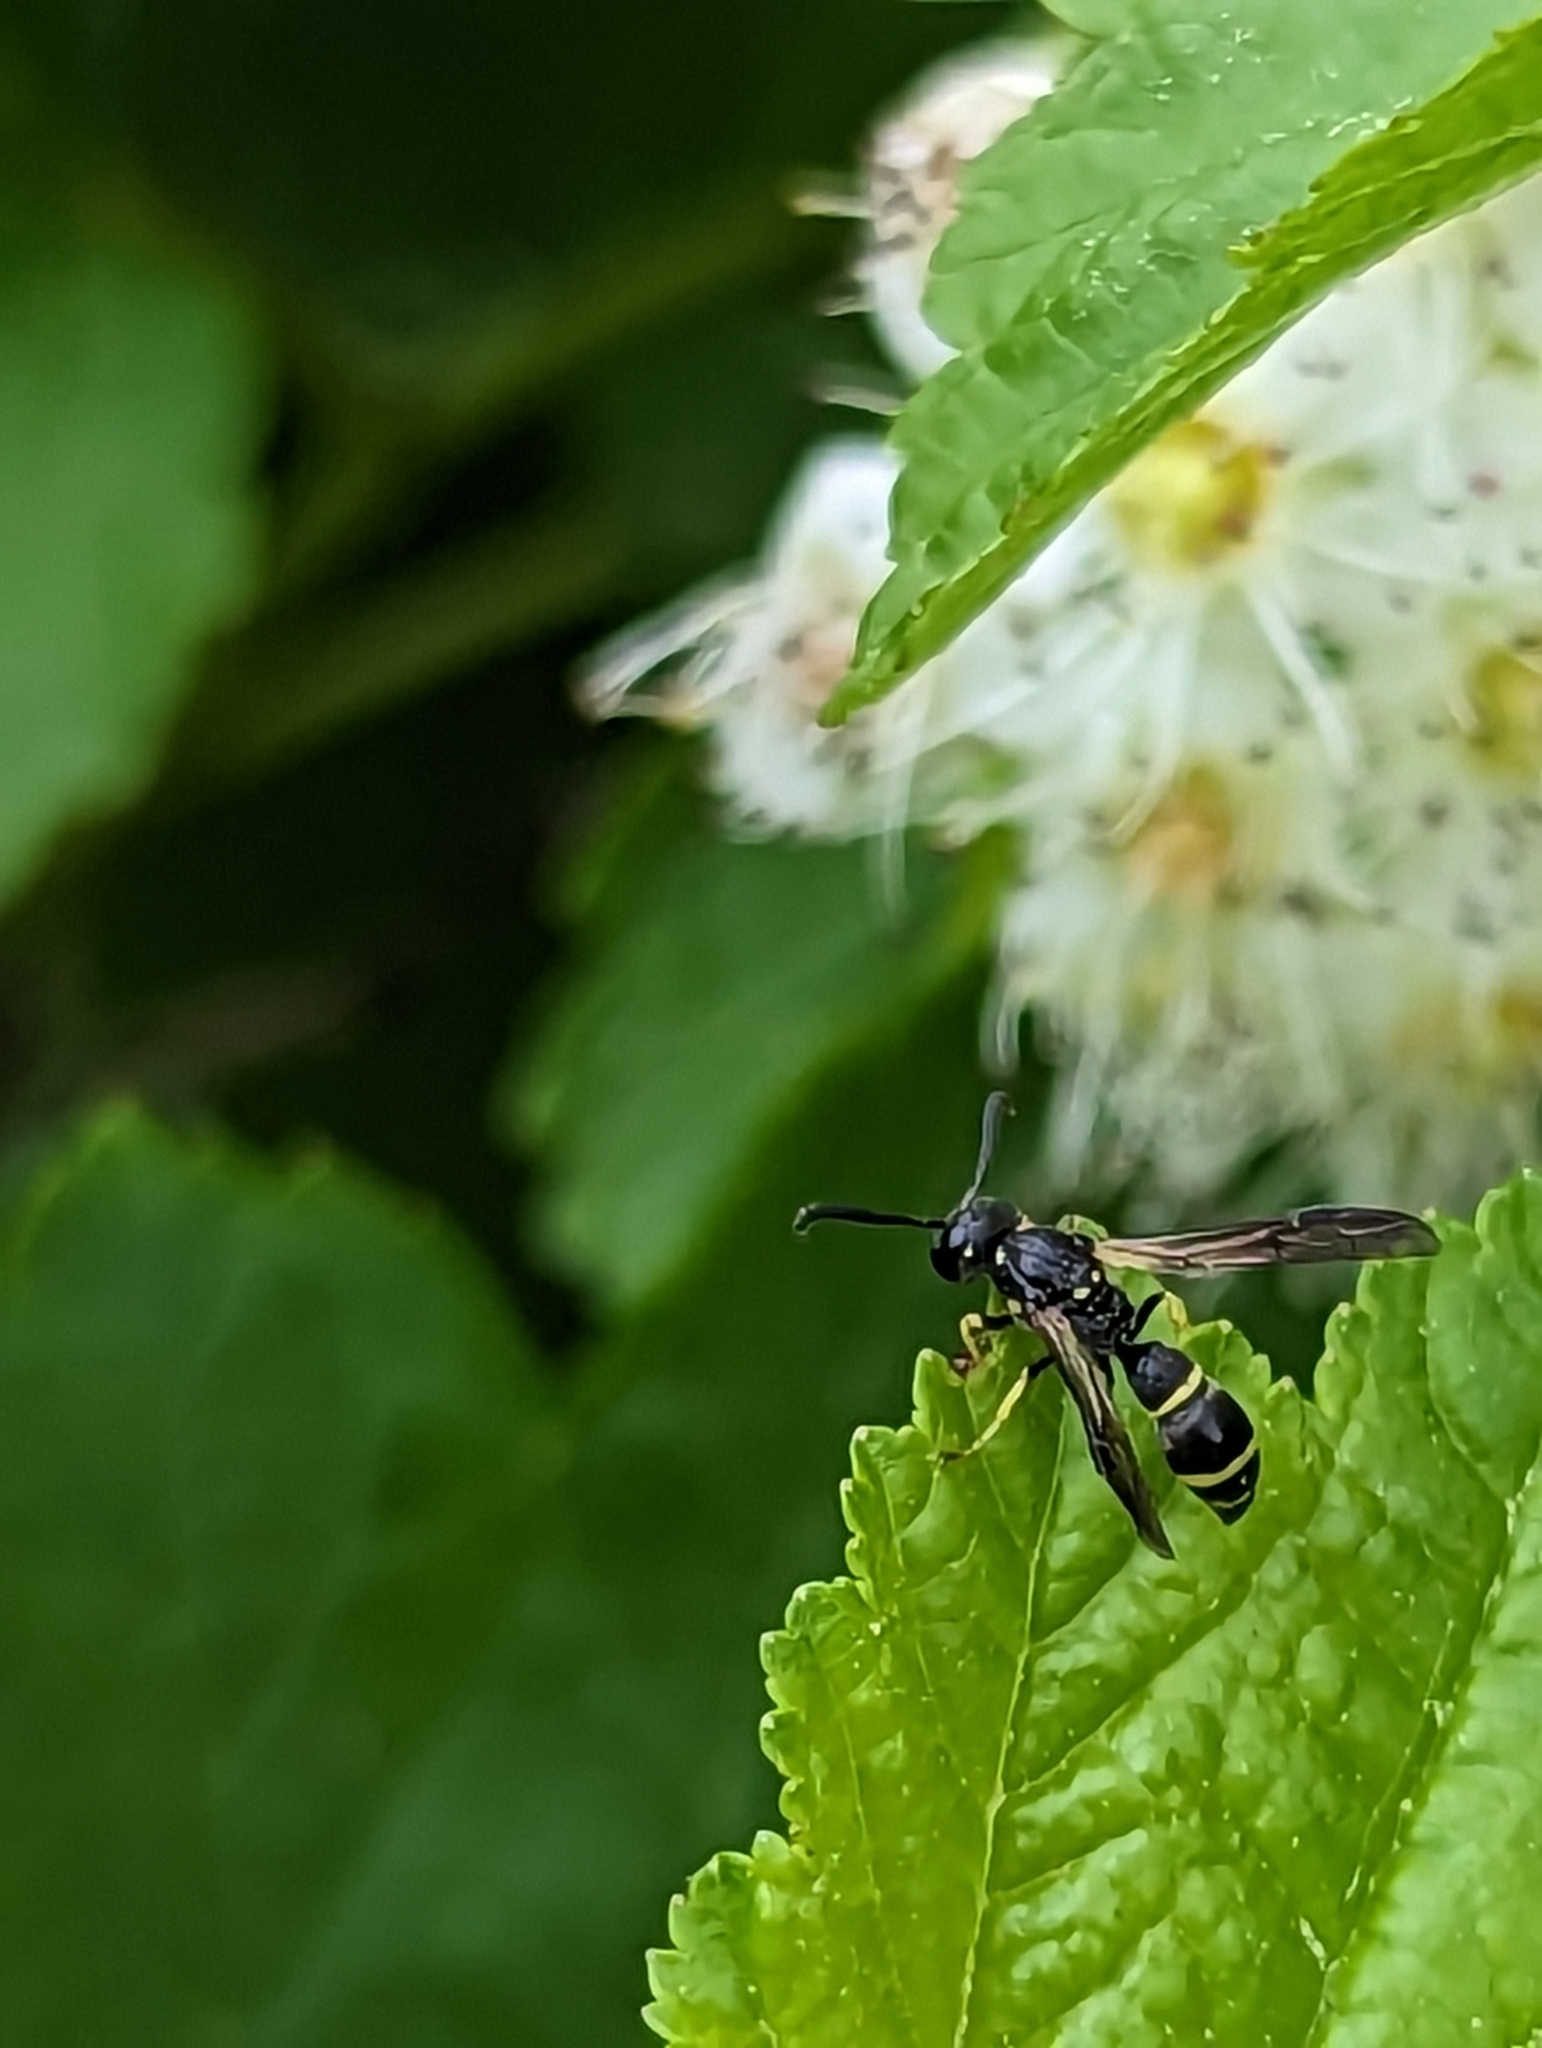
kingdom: Animalia
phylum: Arthropoda
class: Insecta
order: Hymenoptera
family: Eumenidae
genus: Symmorphus
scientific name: Symmorphus
